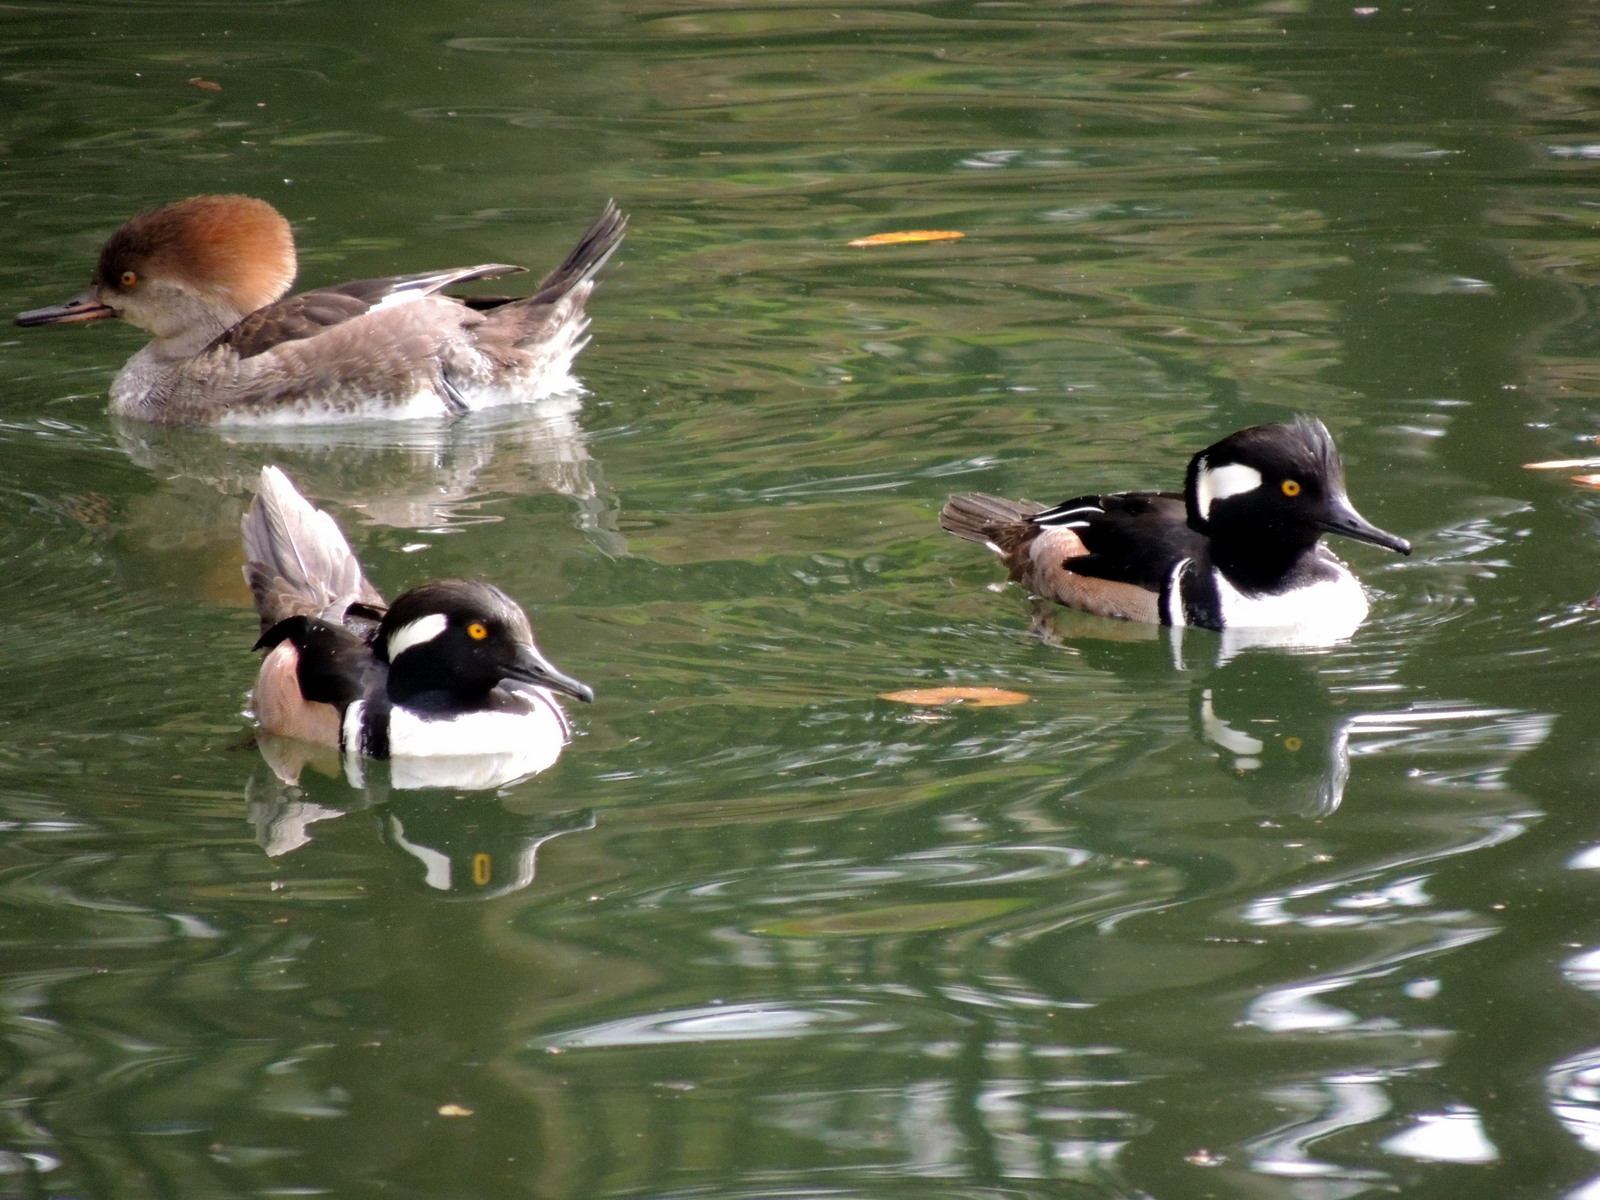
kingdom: Animalia
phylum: Chordata
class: Aves
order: Anseriformes
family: Anatidae
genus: Lophodytes
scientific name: Lophodytes cucullatus
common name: Hooded merganser
